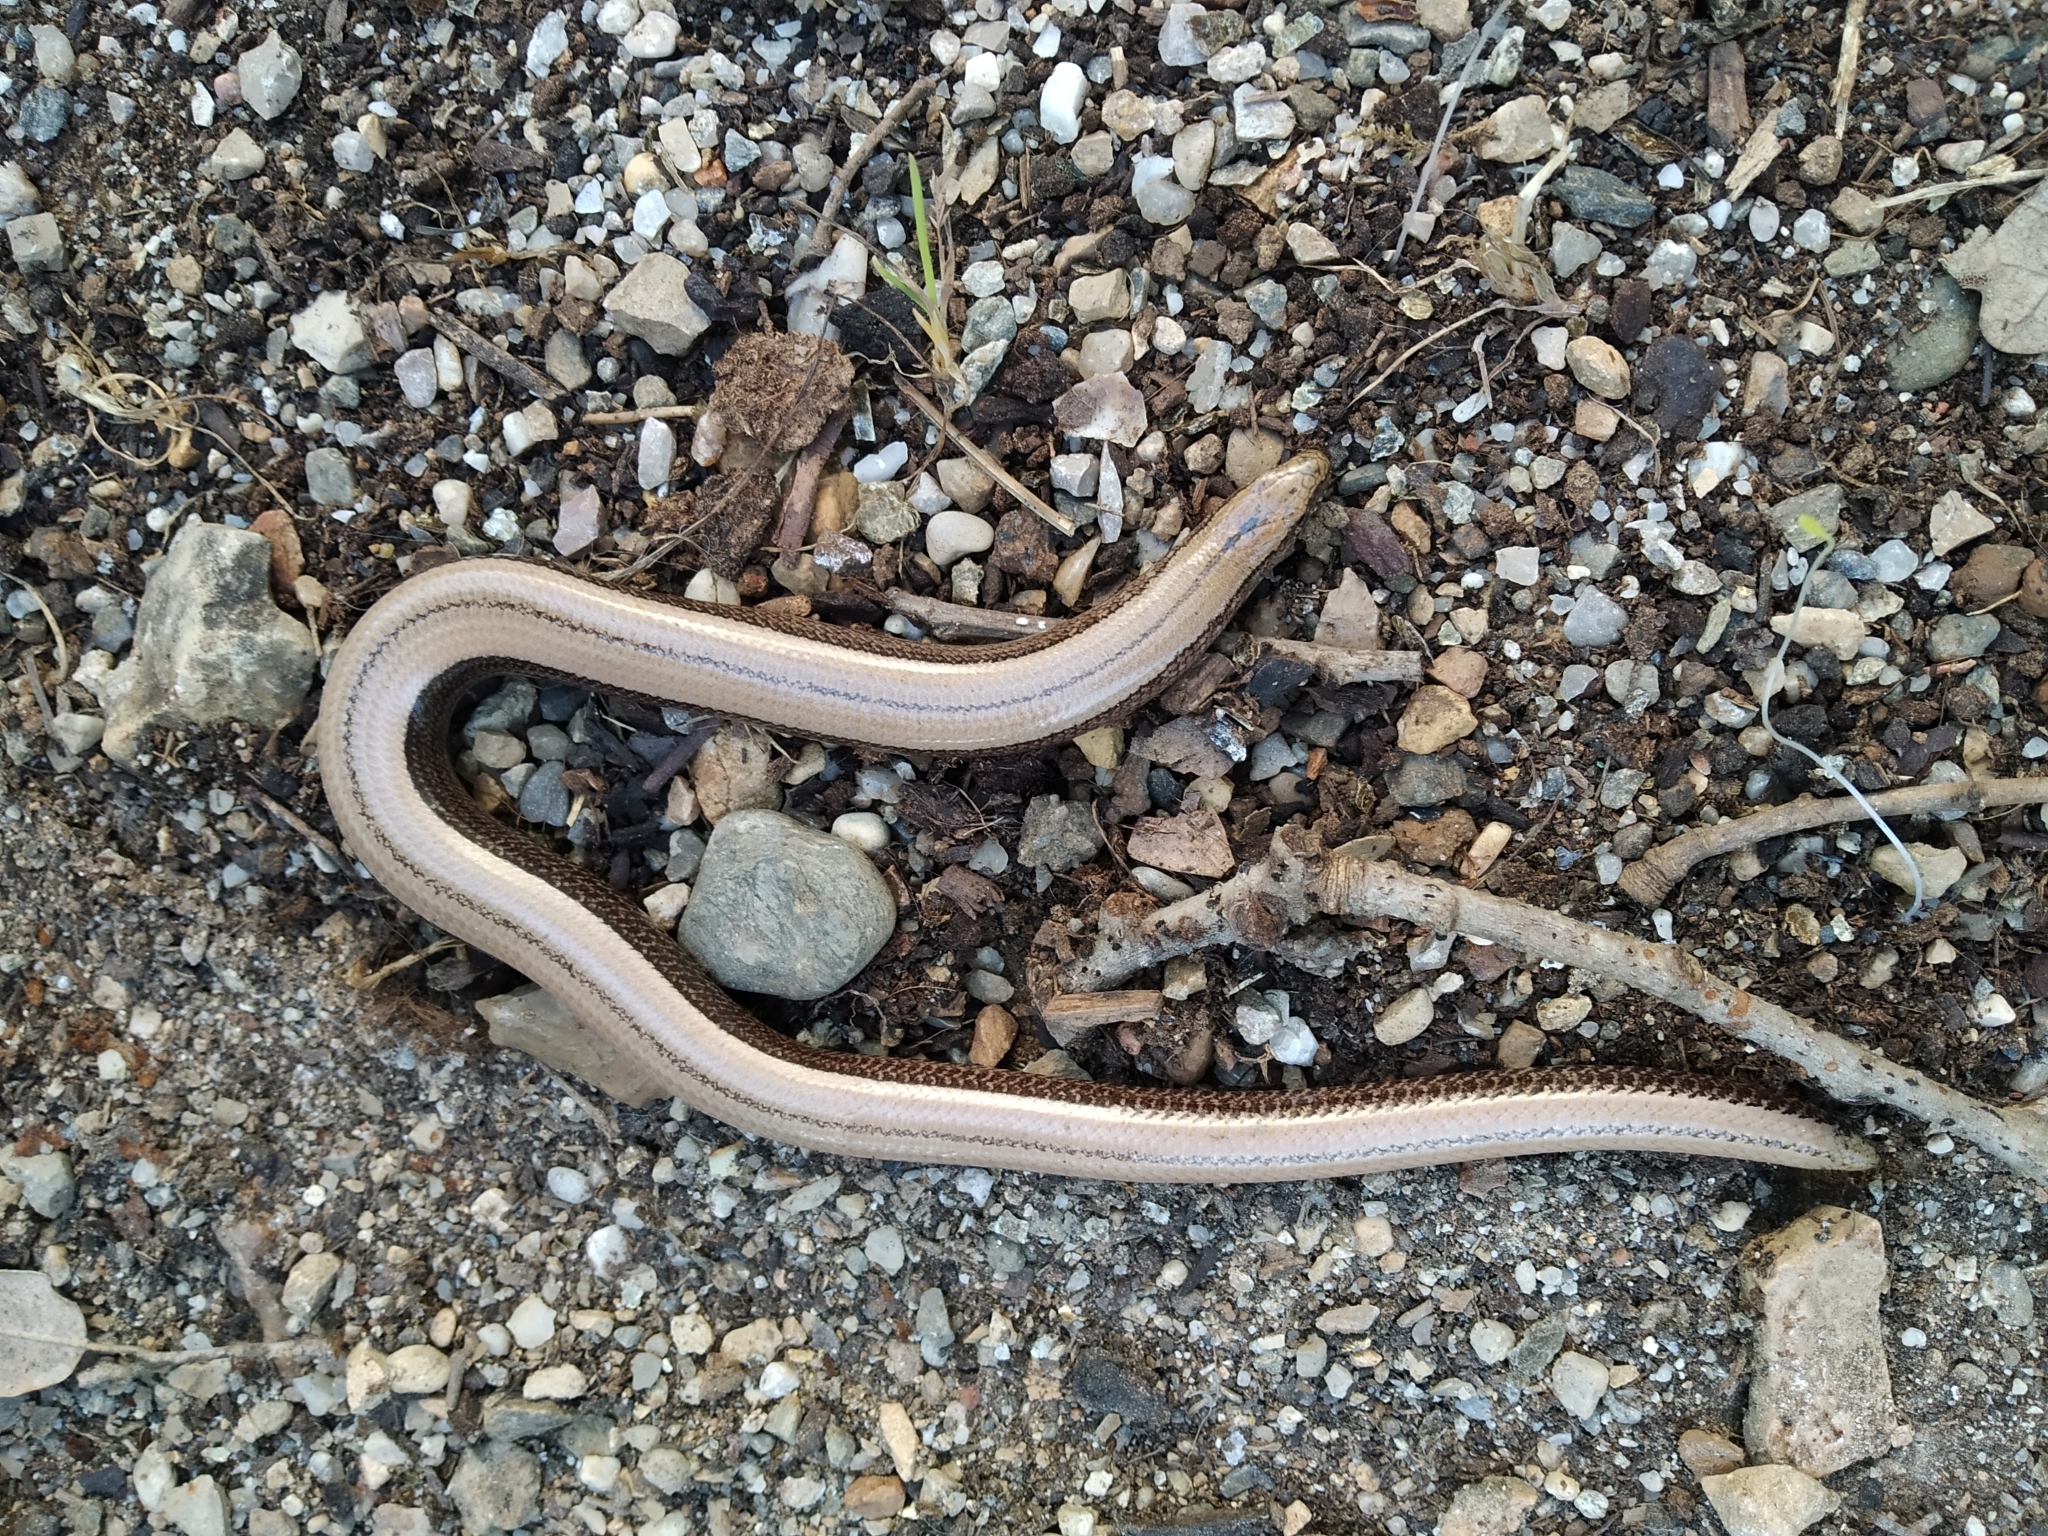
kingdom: Animalia
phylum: Chordata
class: Squamata
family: Anguidae
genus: Anguis
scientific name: Anguis fragilis
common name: Slow worm
